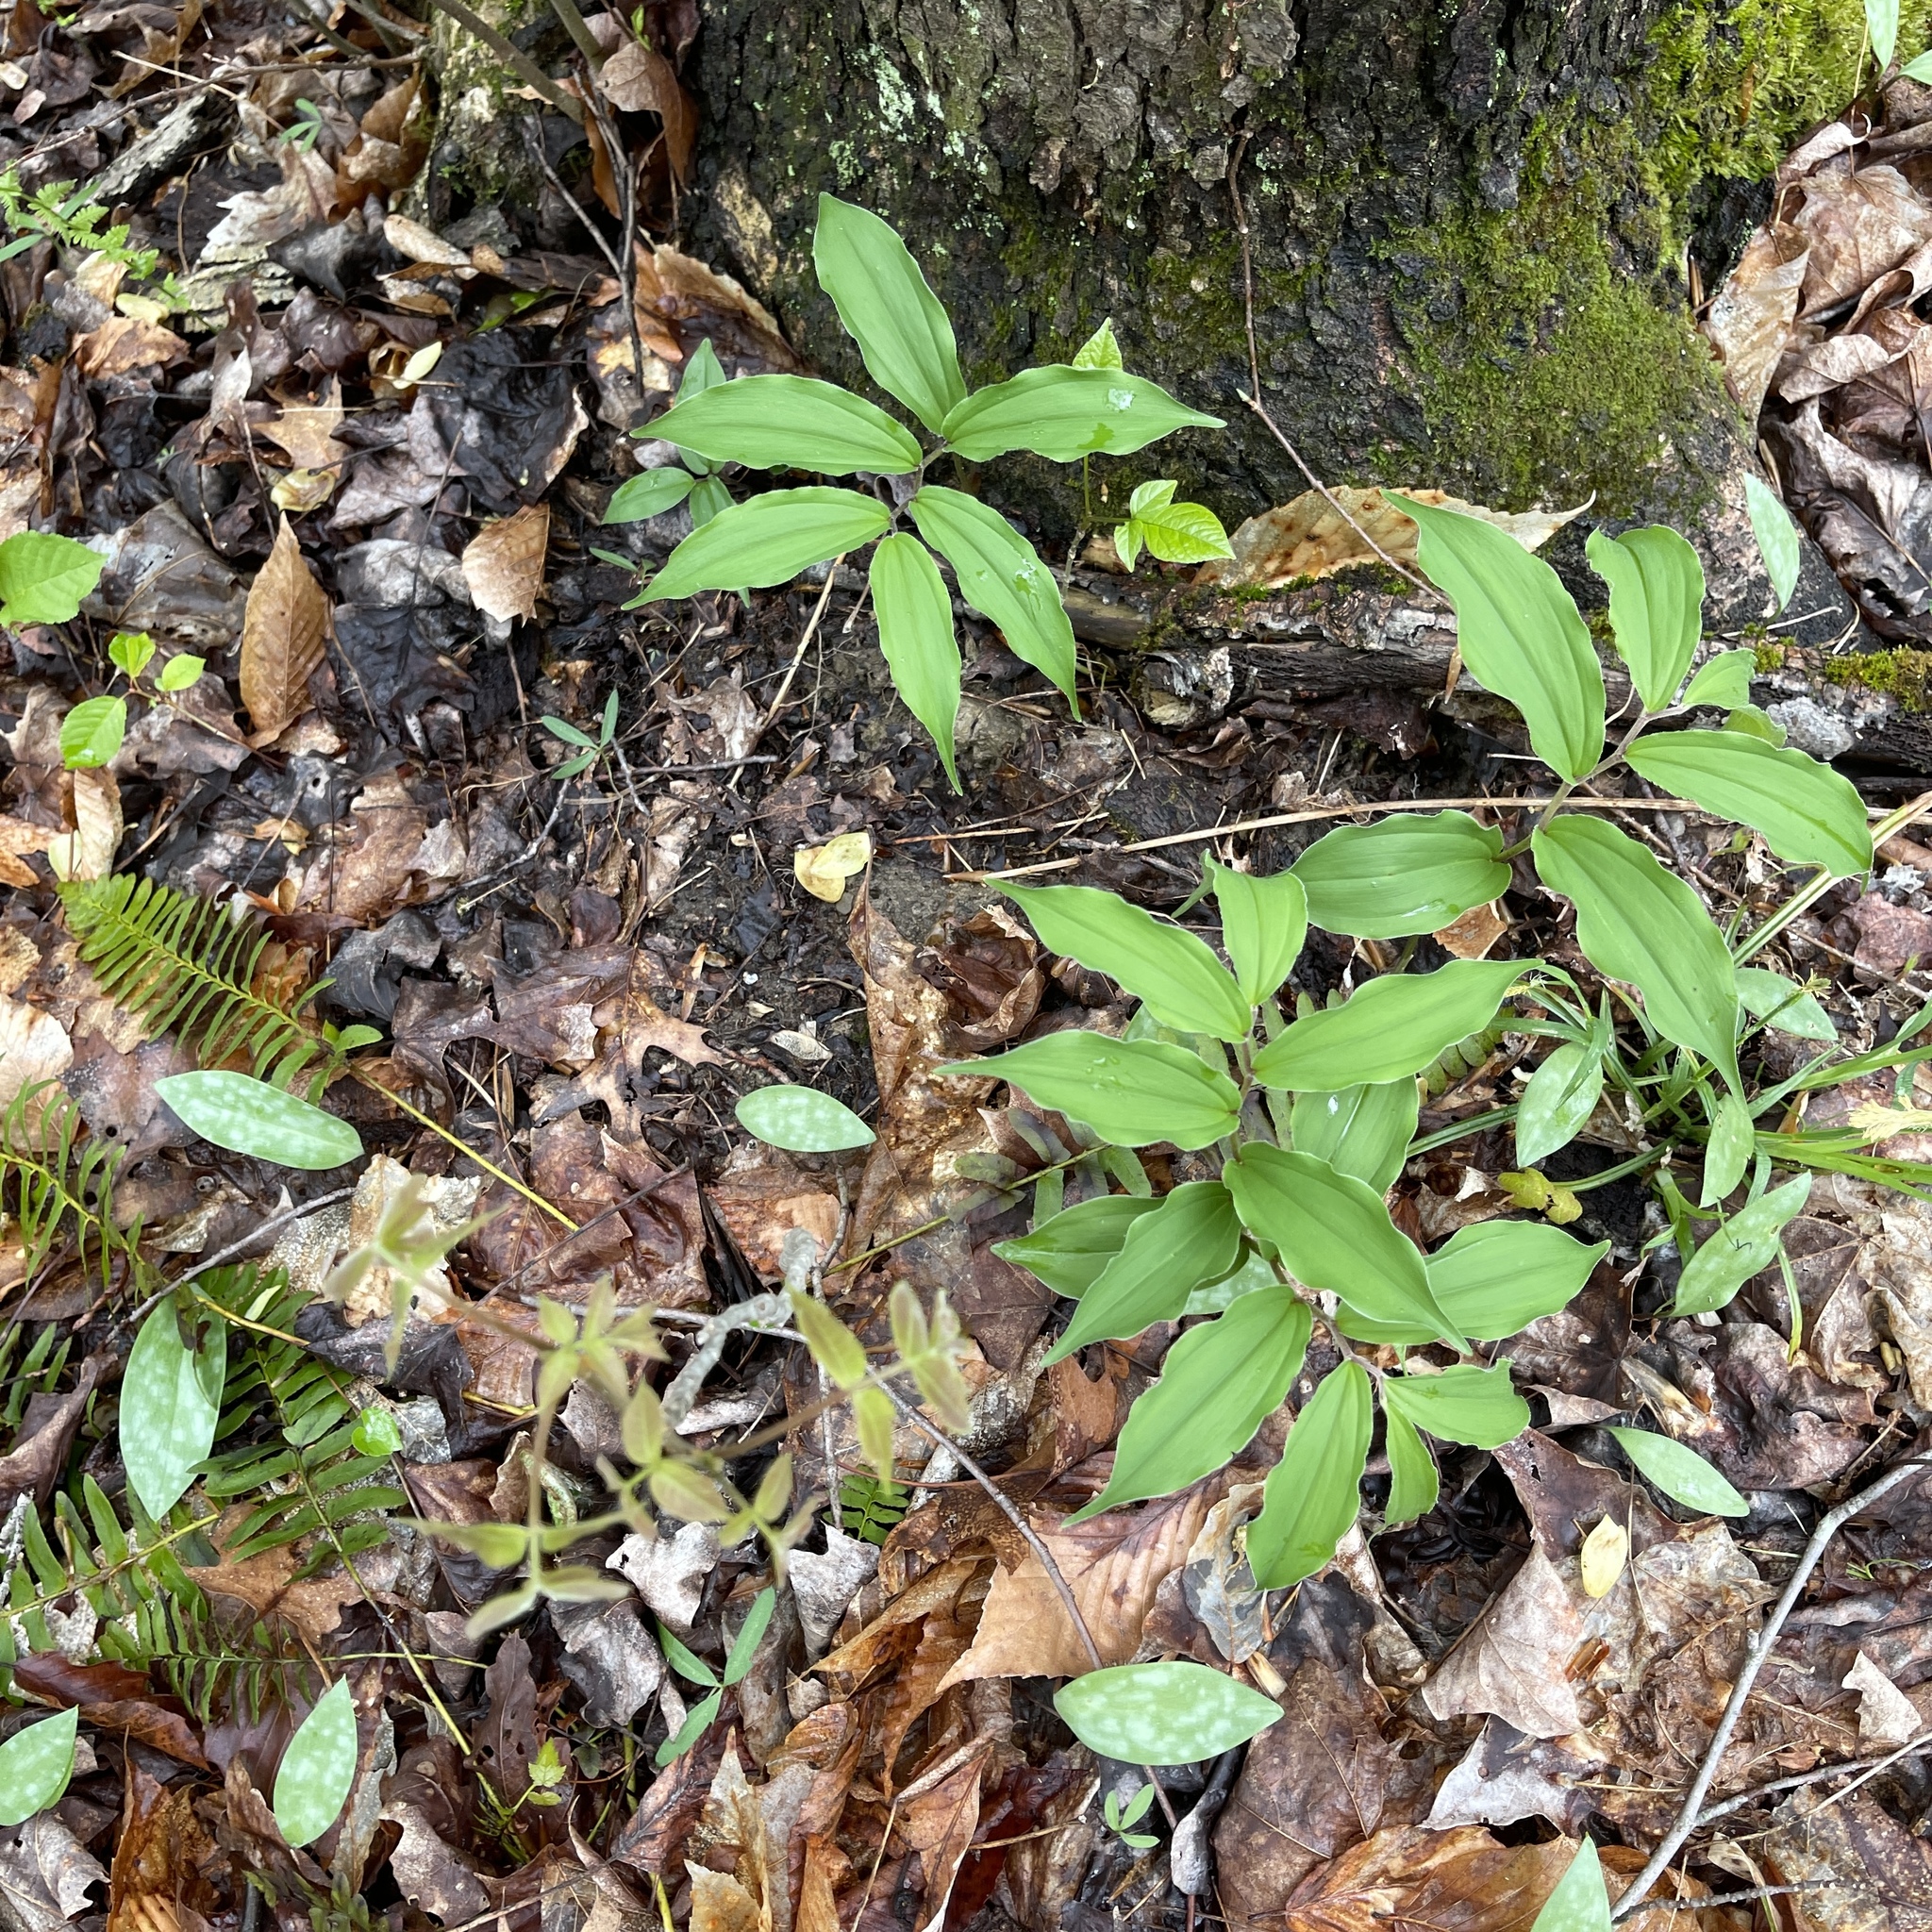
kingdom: Plantae
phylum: Tracheophyta
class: Liliopsida
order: Asparagales
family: Asparagaceae
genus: Maianthemum
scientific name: Maianthemum racemosum
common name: False spikenard
